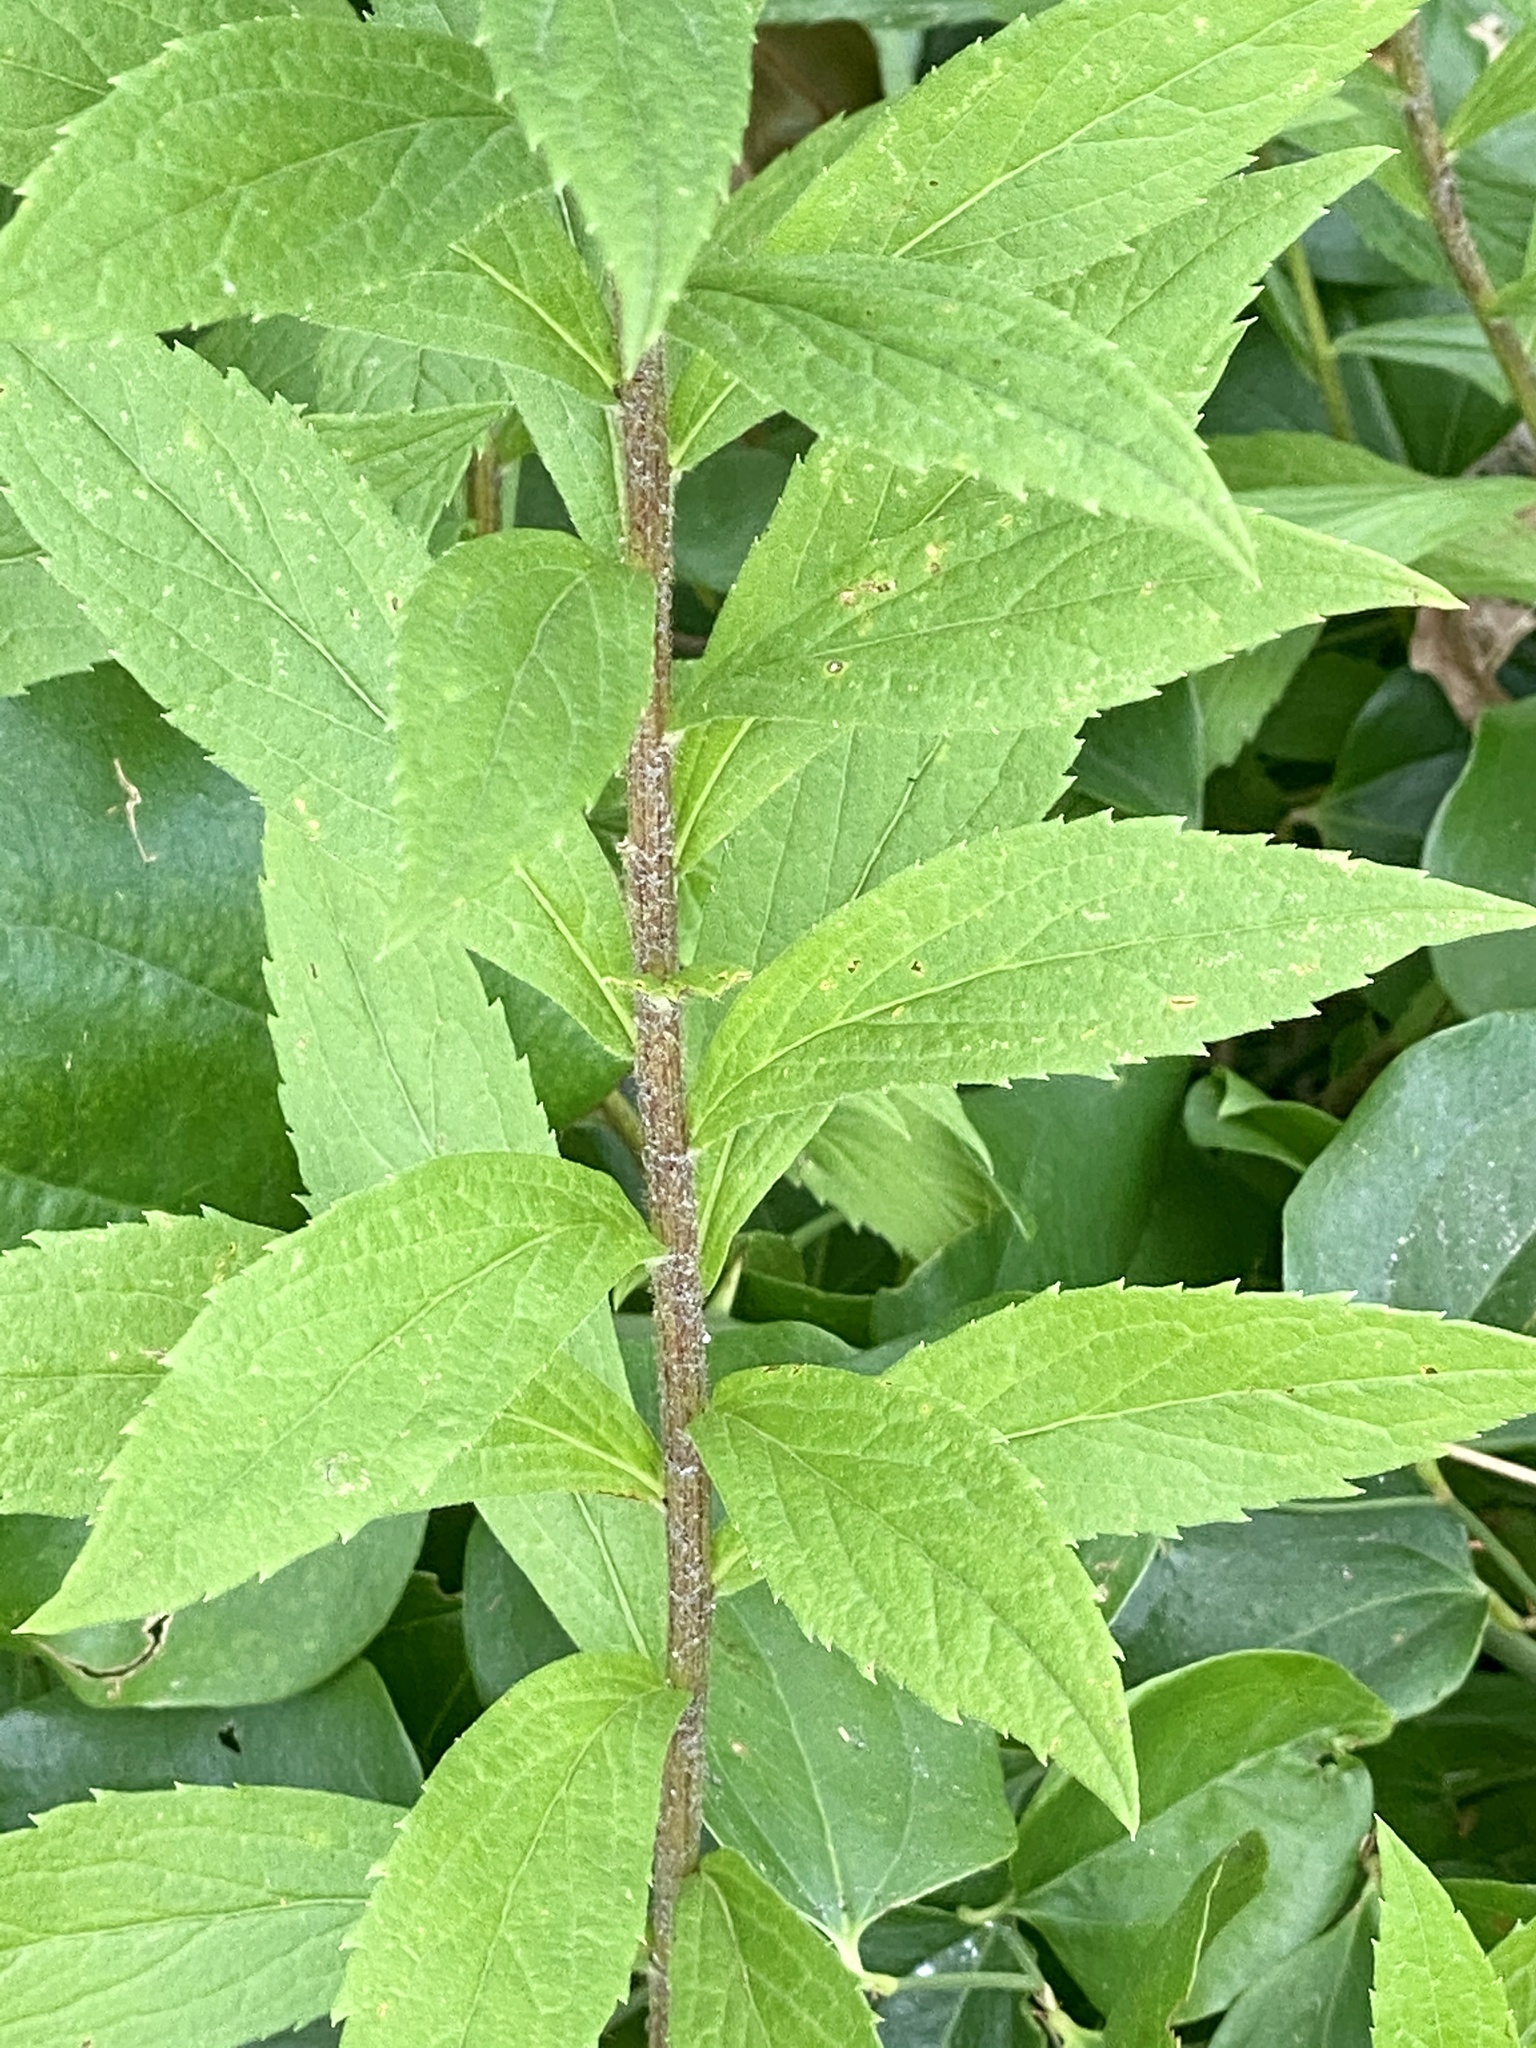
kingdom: Plantae
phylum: Tracheophyta
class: Magnoliopsida
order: Asterales
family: Asteraceae
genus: Solidago
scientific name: Solidago rugosa
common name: Rough-stemmed goldenrod
